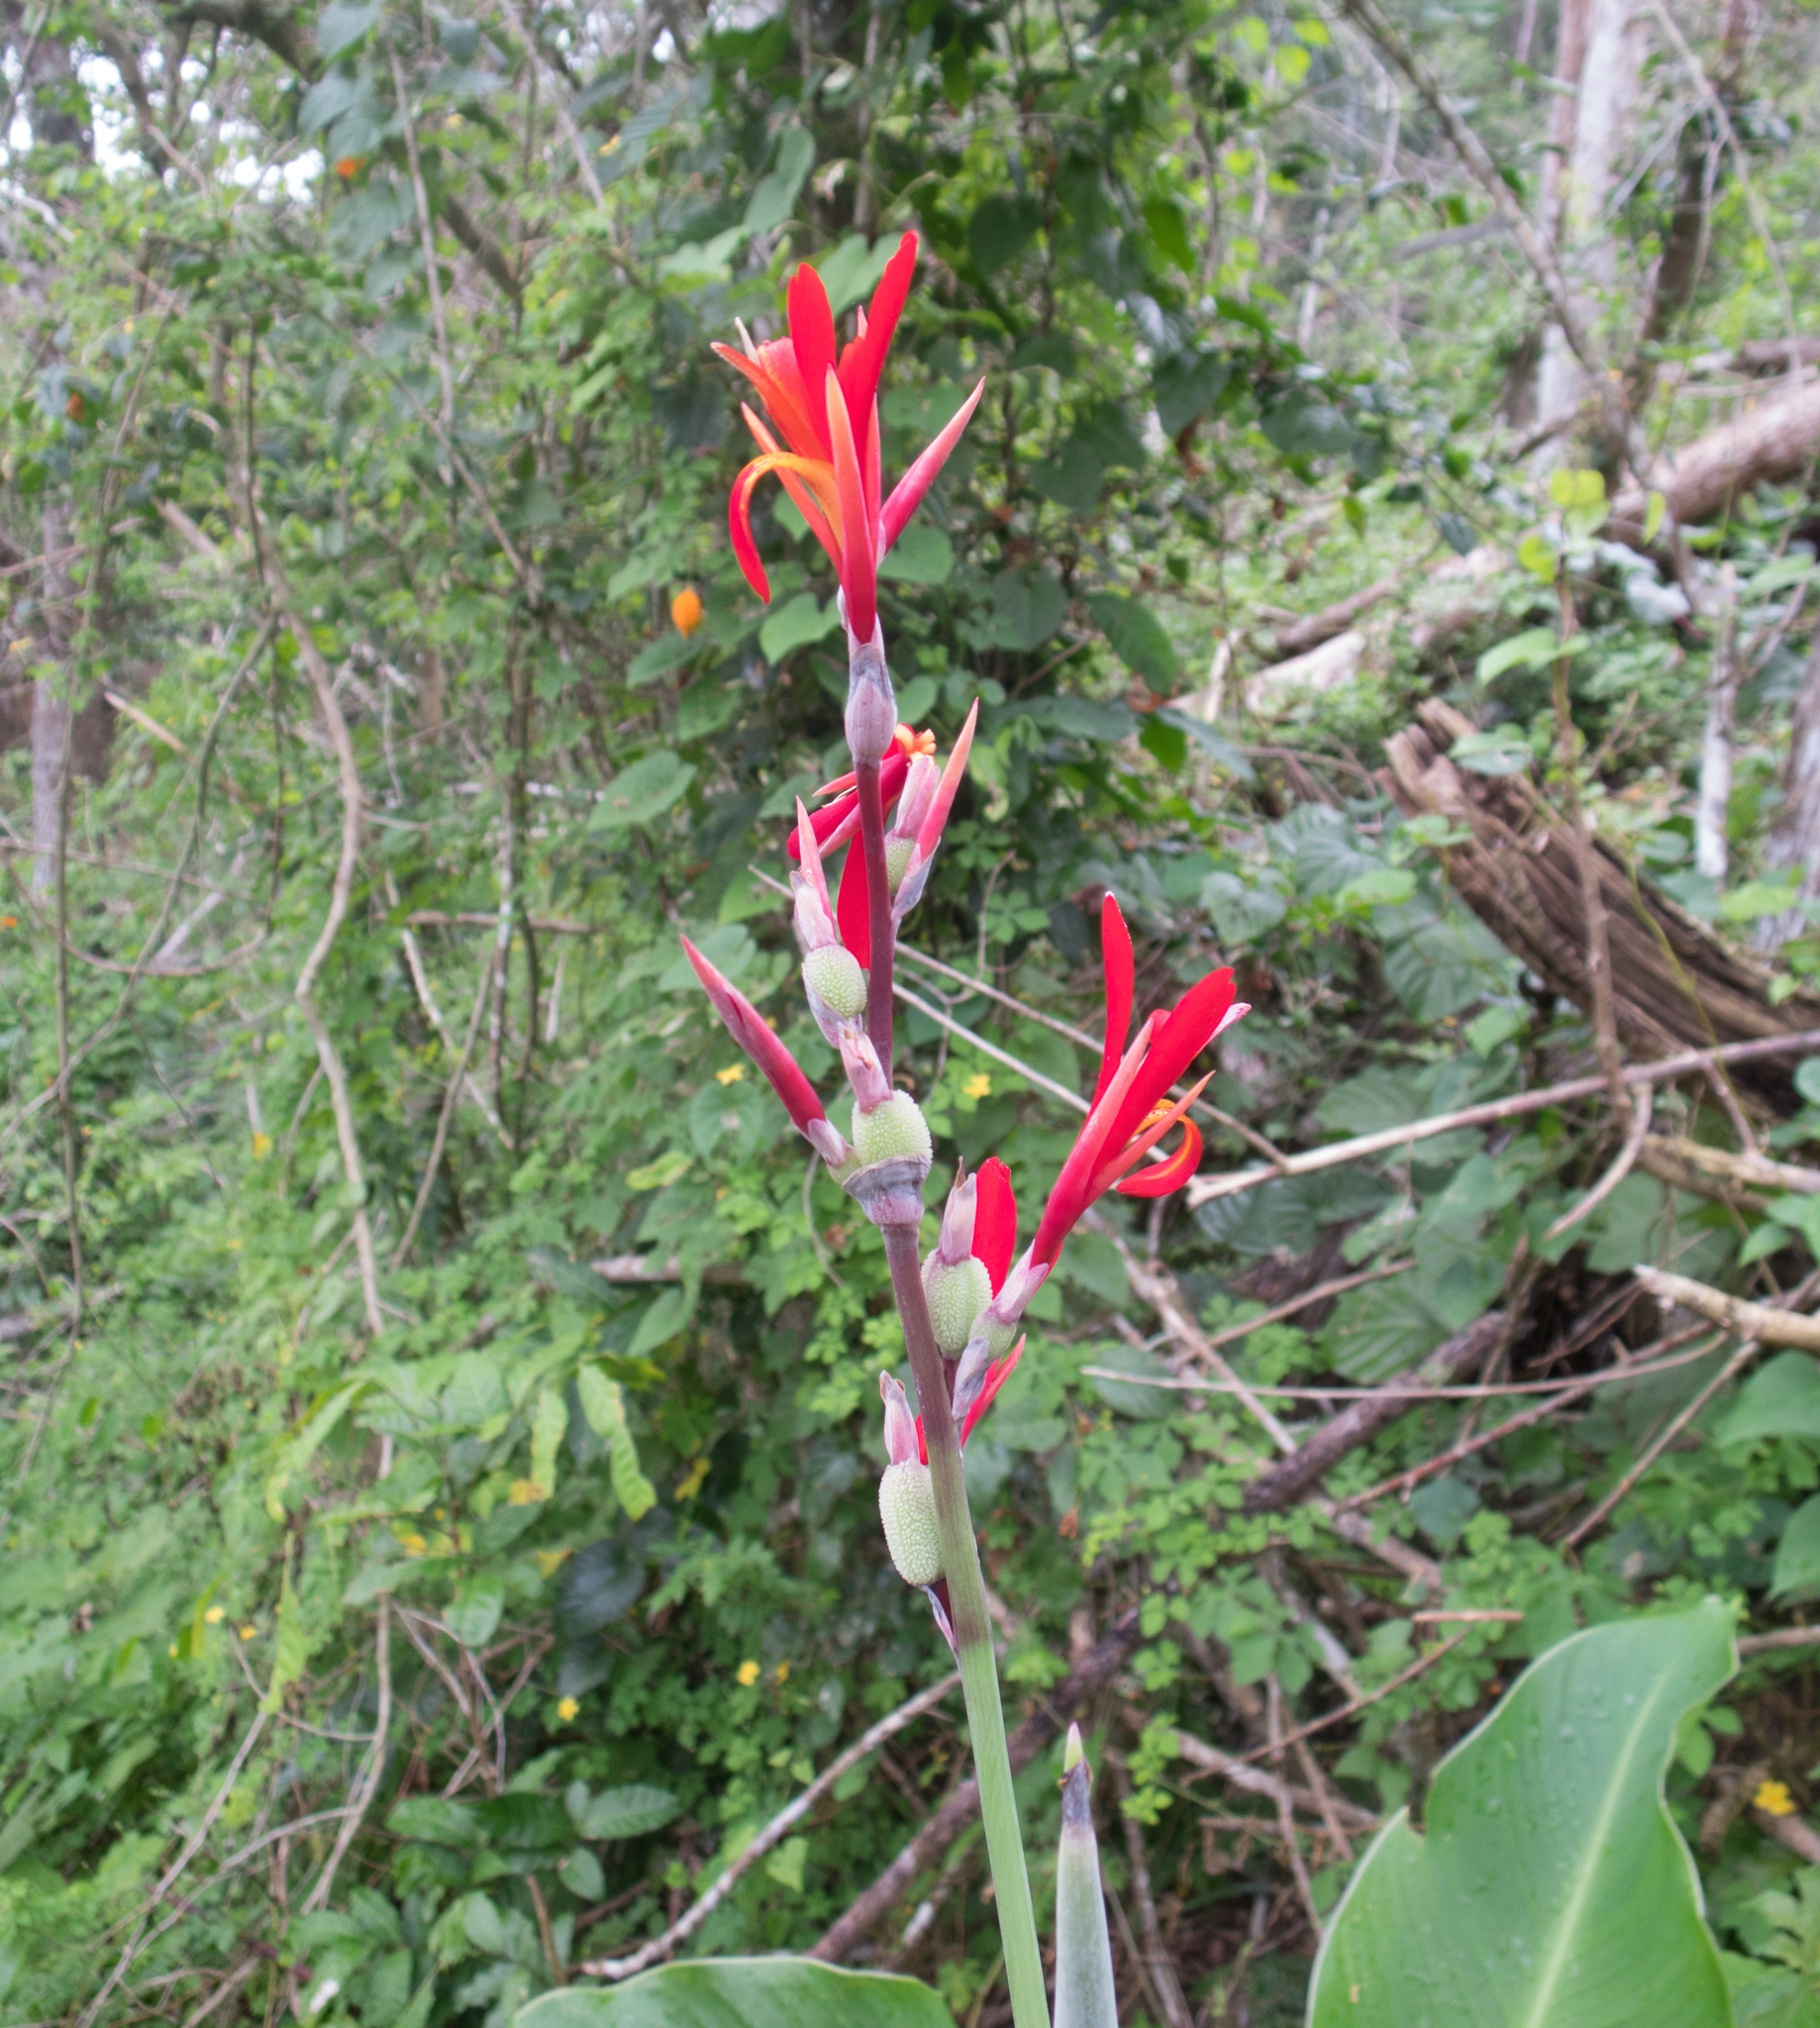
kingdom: Plantae
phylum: Tracheophyta
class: Liliopsida
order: Zingiberales
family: Cannaceae
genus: Canna
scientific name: Canna indica
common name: Indian shot
